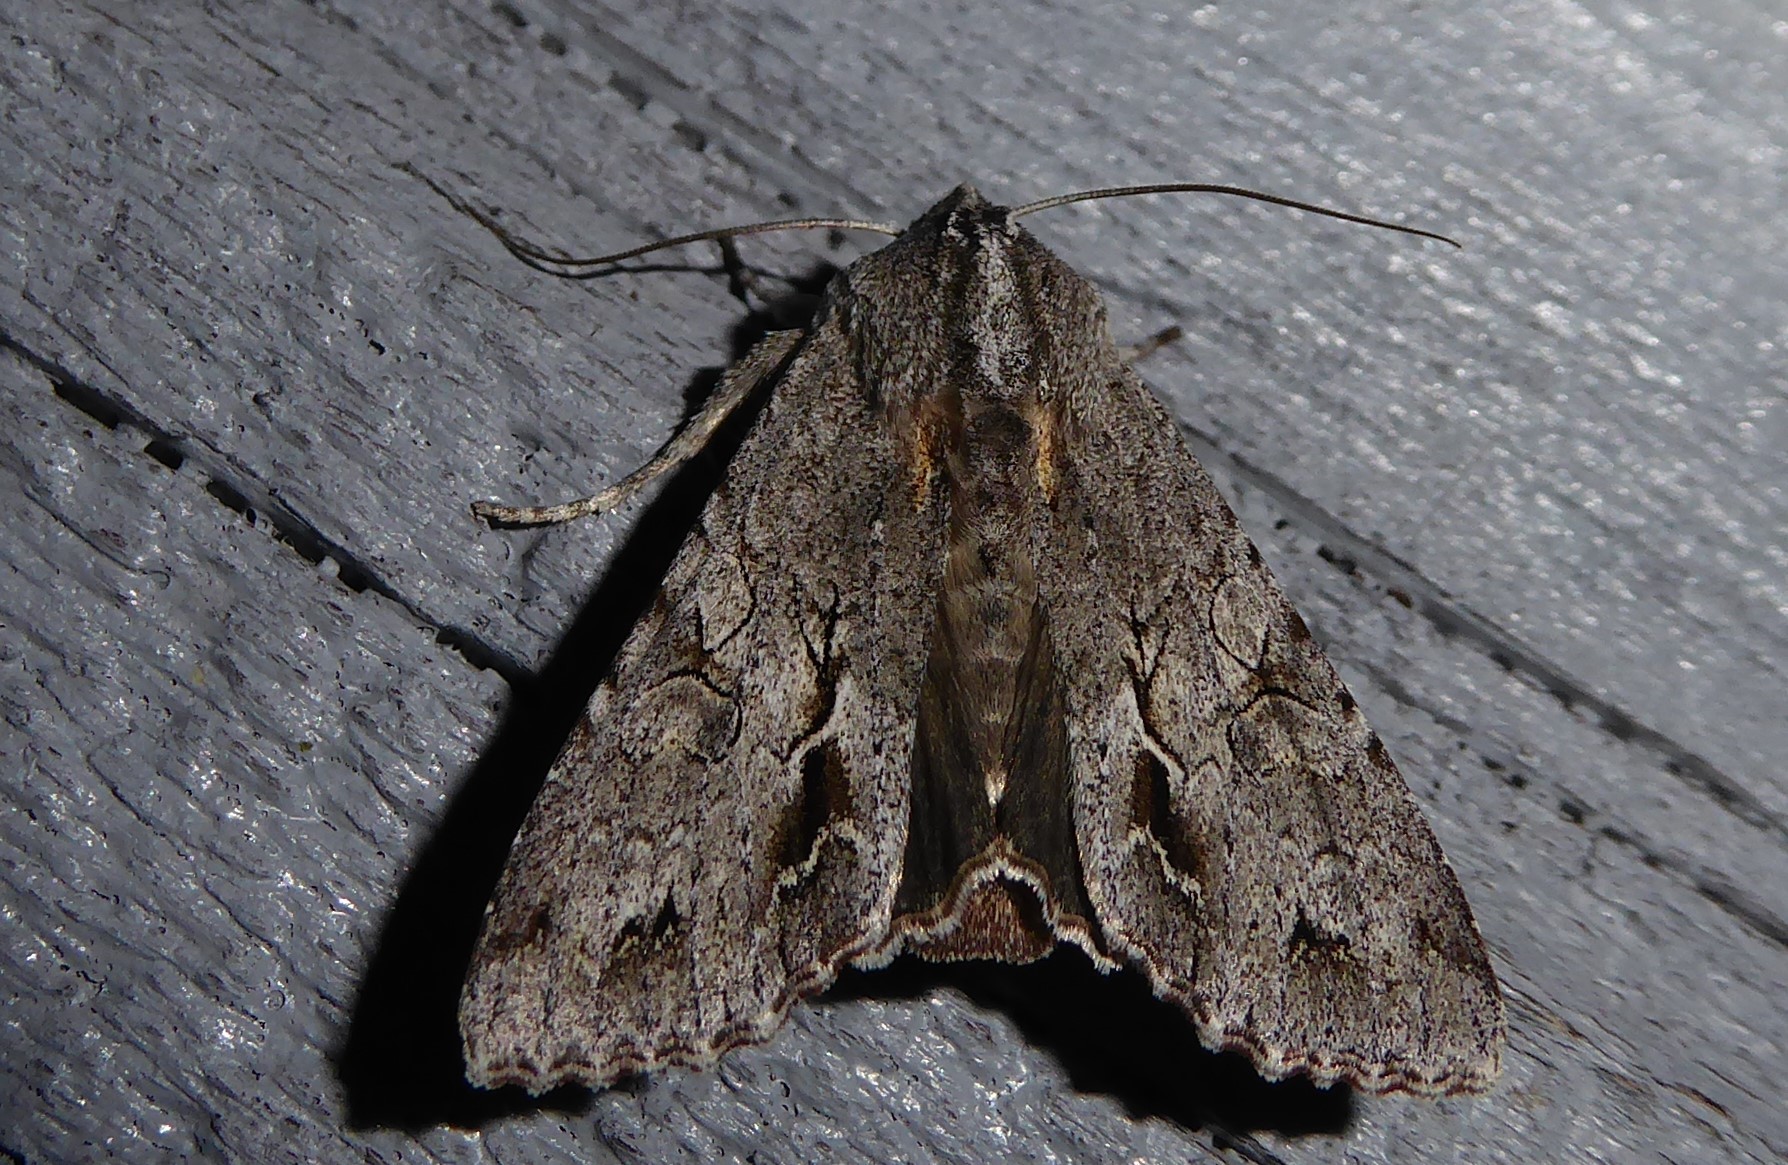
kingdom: Animalia
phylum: Arthropoda
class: Insecta
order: Lepidoptera
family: Noctuidae
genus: Ichneutica
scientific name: Ichneutica
